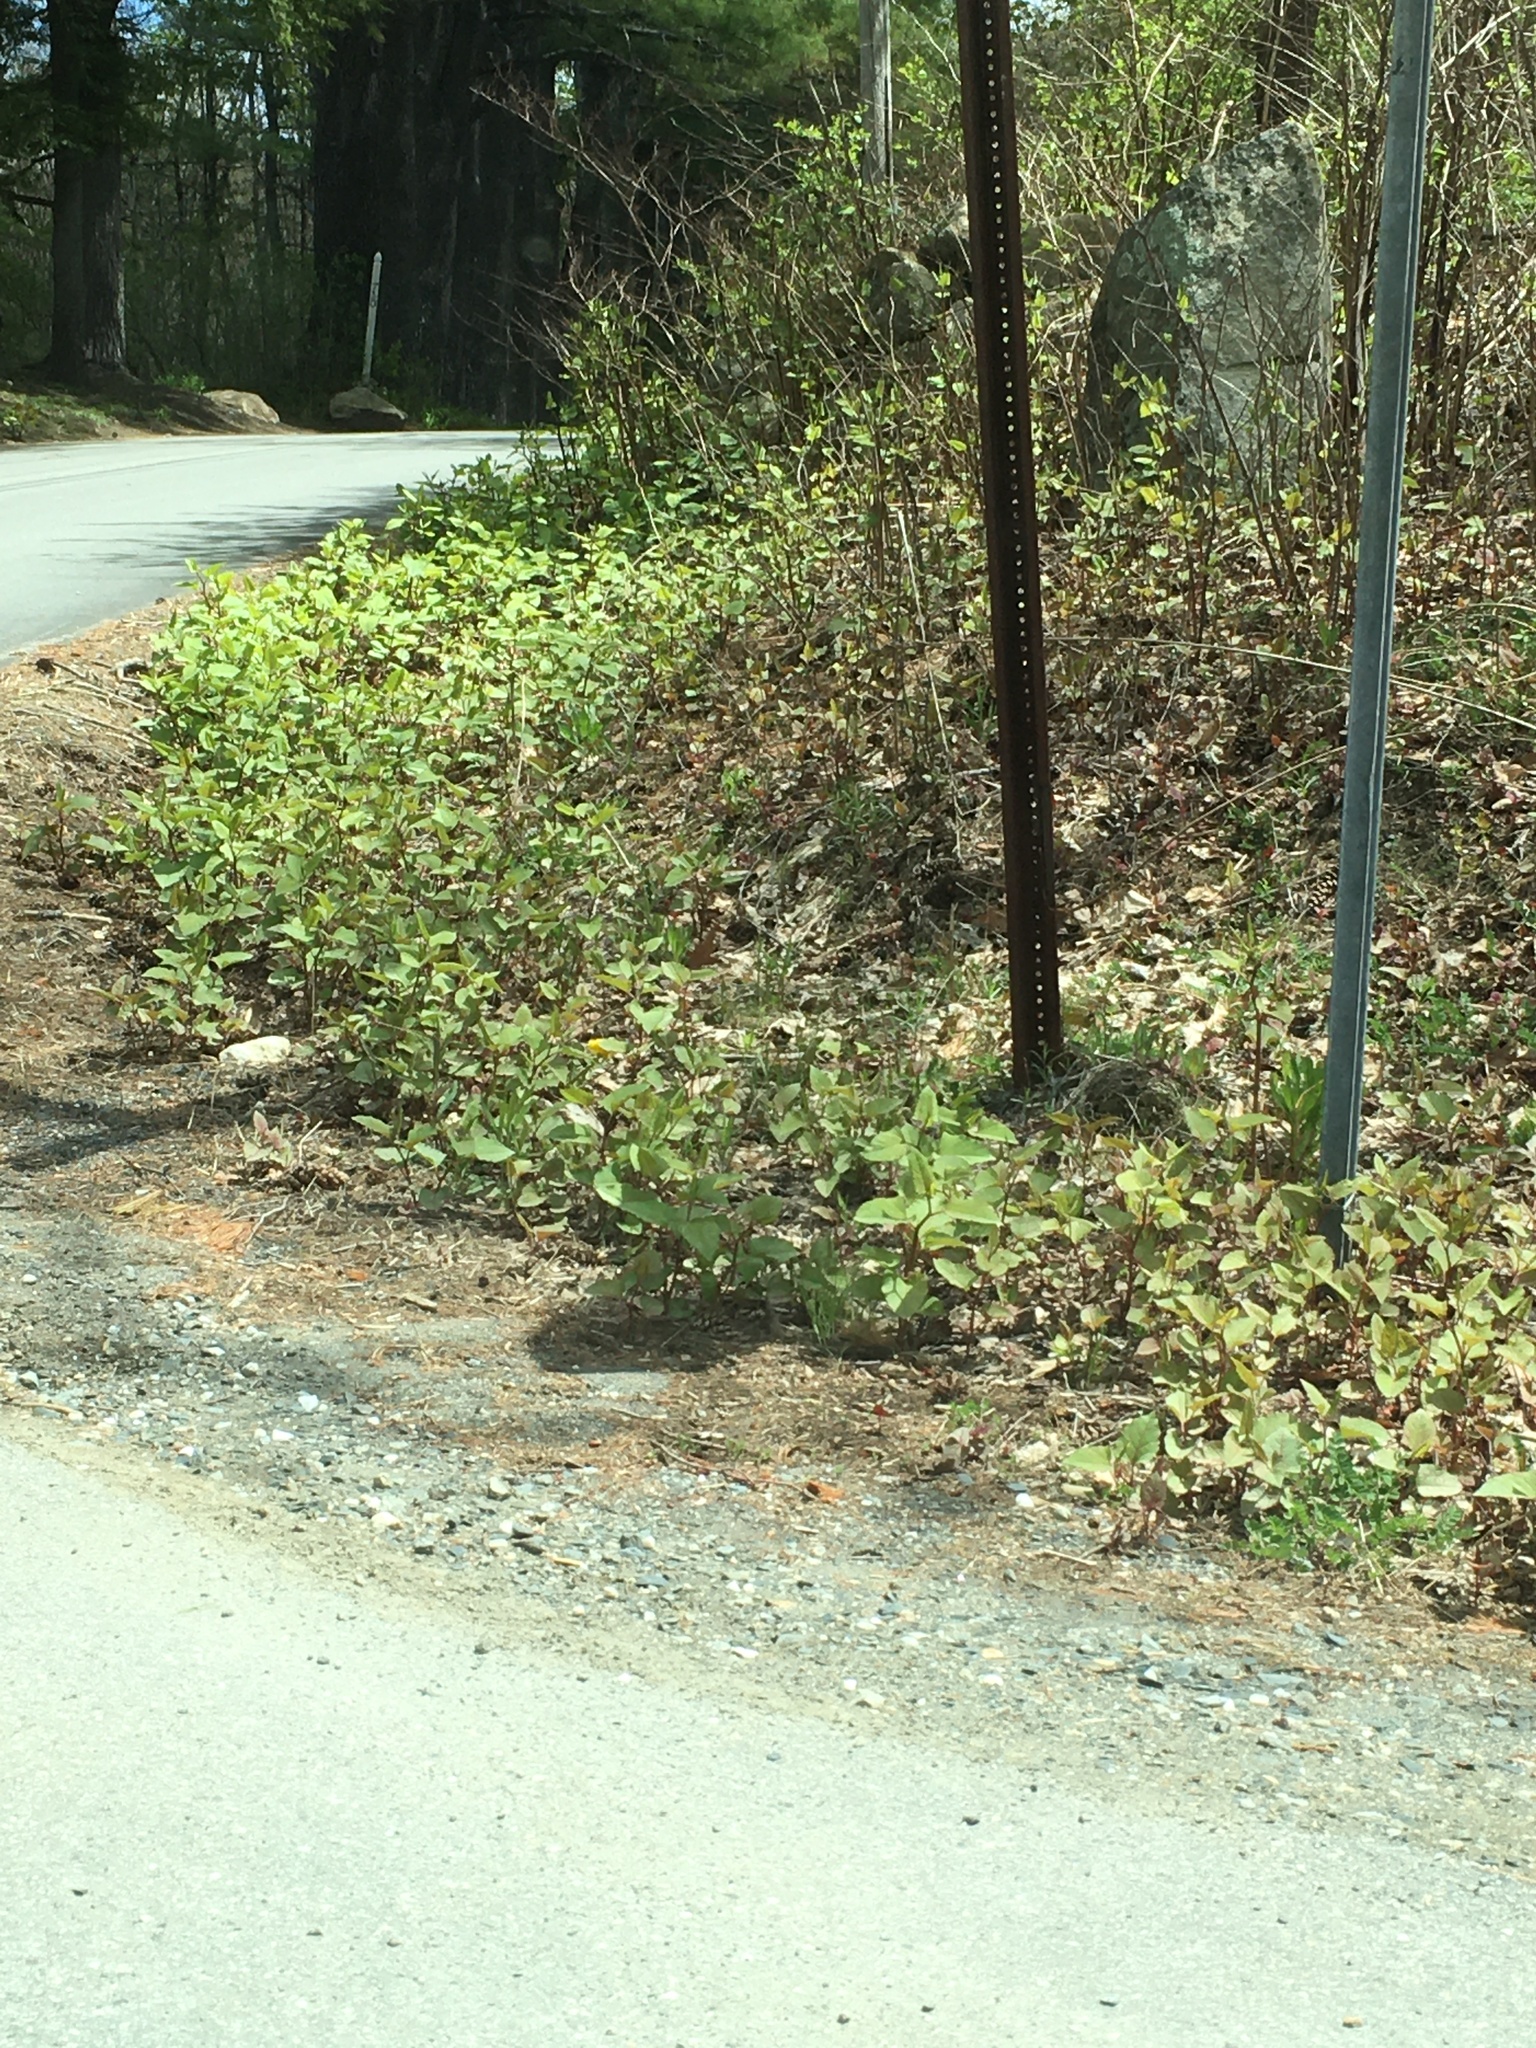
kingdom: Plantae
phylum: Tracheophyta
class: Magnoliopsida
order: Caryophyllales
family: Polygonaceae
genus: Reynoutria
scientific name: Reynoutria japonica
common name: Japanese knotweed
